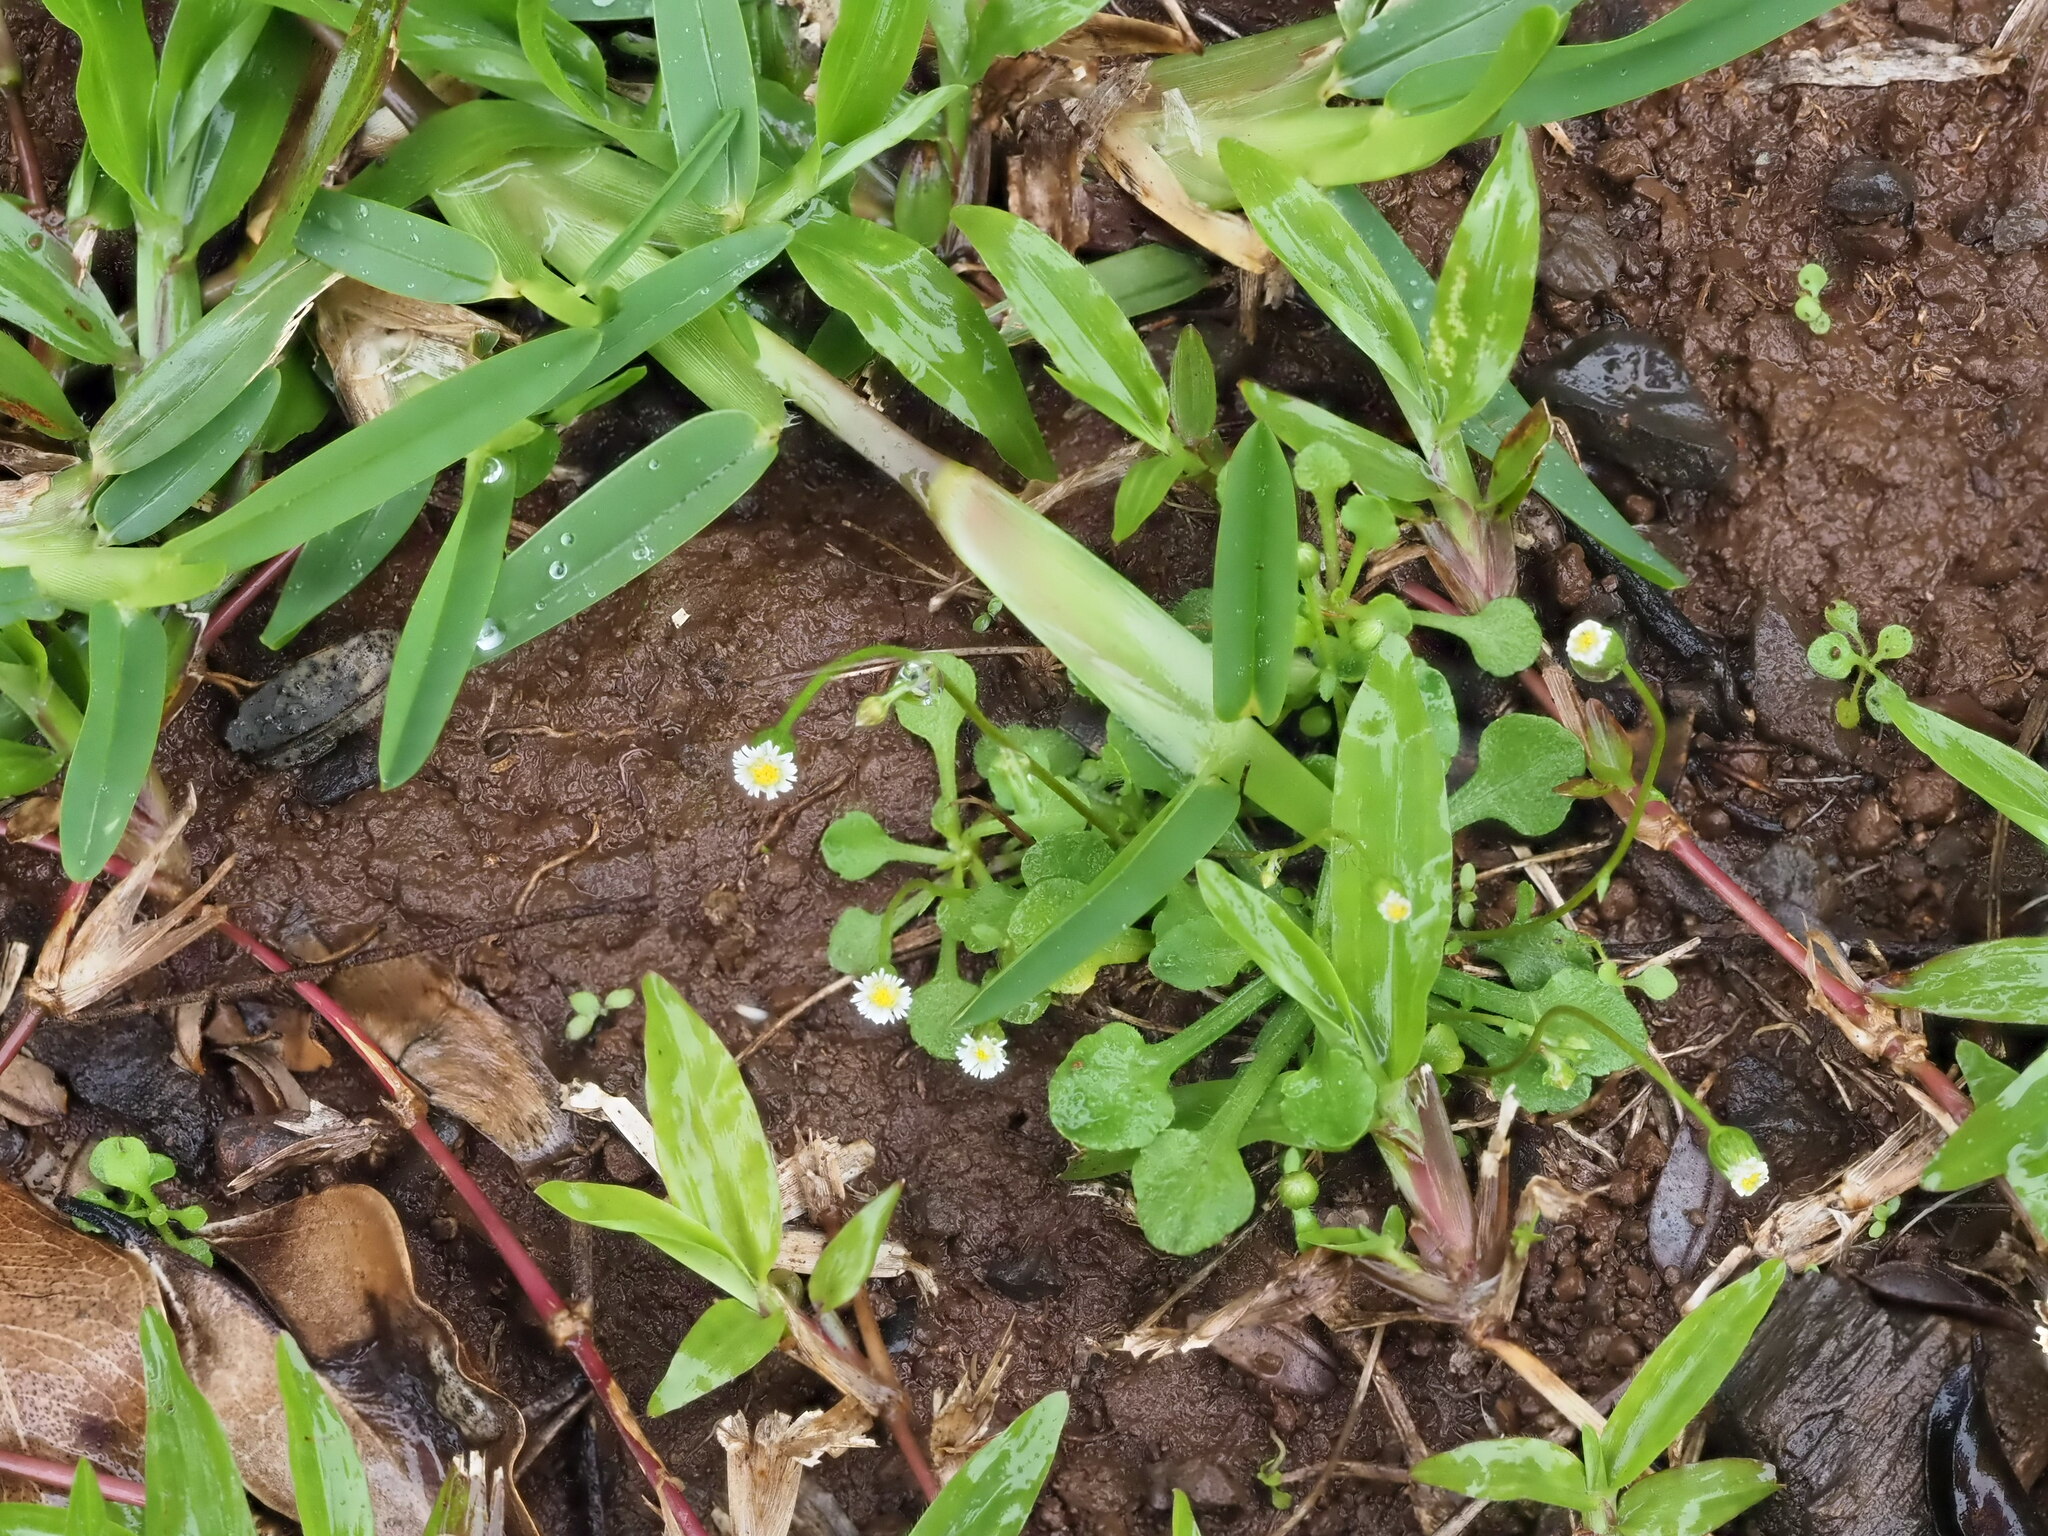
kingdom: Plantae
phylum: Tracheophyta
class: Magnoliopsida
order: Asterales
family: Asteraceae
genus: Erigeron
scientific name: Erigeron bellioides
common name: Bellorita
